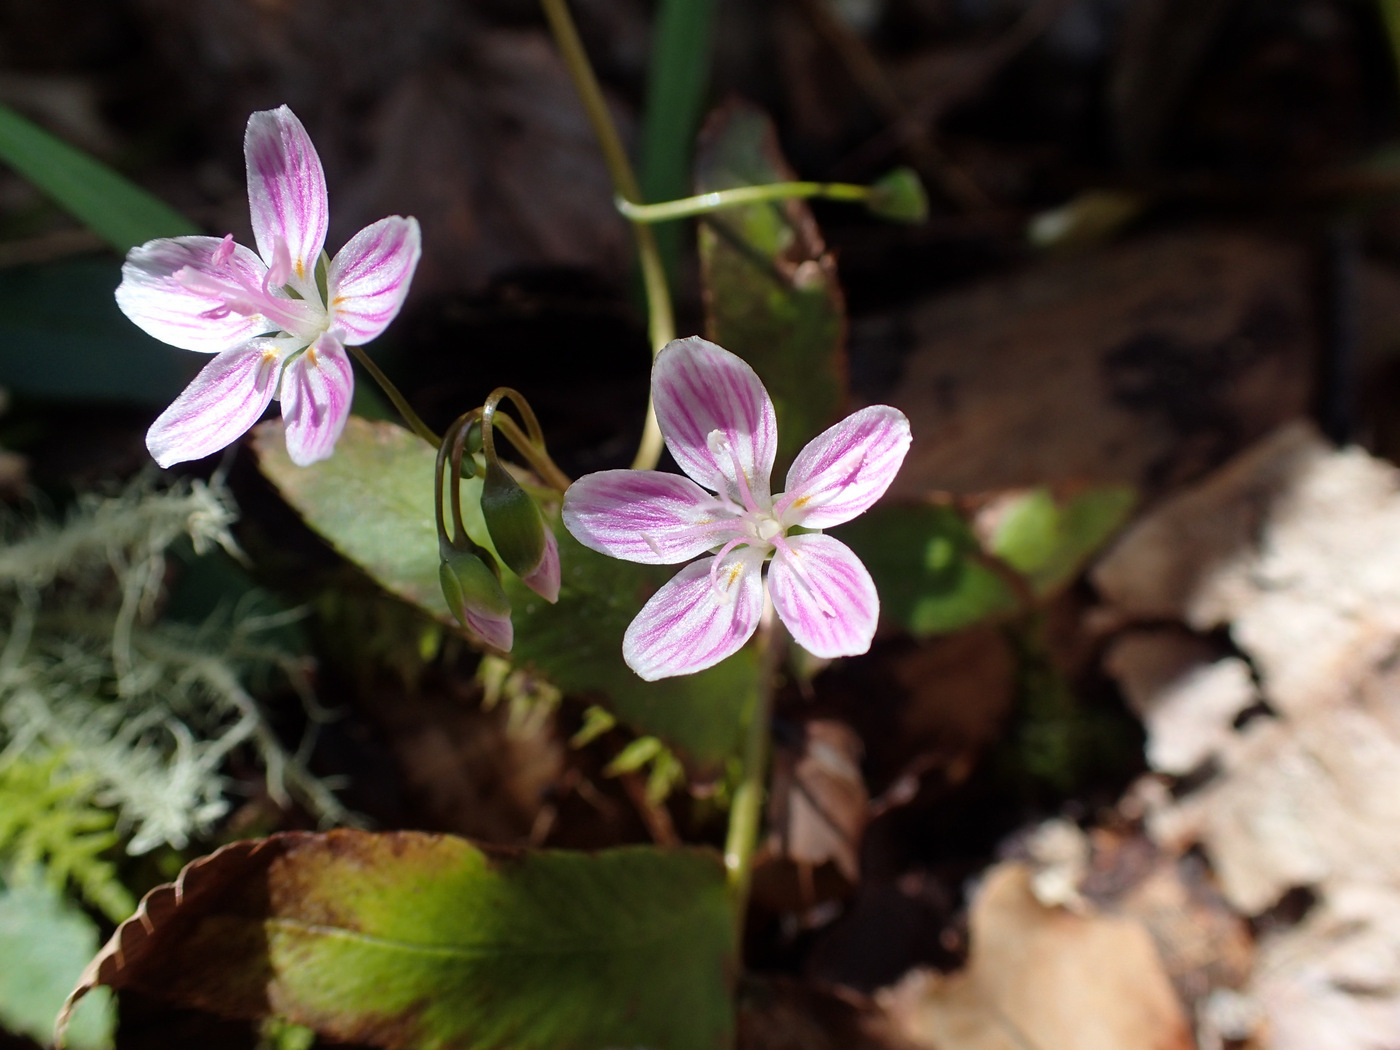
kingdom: Plantae
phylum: Tracheophyta
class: Magnoliopsida
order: Caryophyllales
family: Montiaceae
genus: Claytonia
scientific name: Claytonia virginica
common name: Virginia springbeauty
